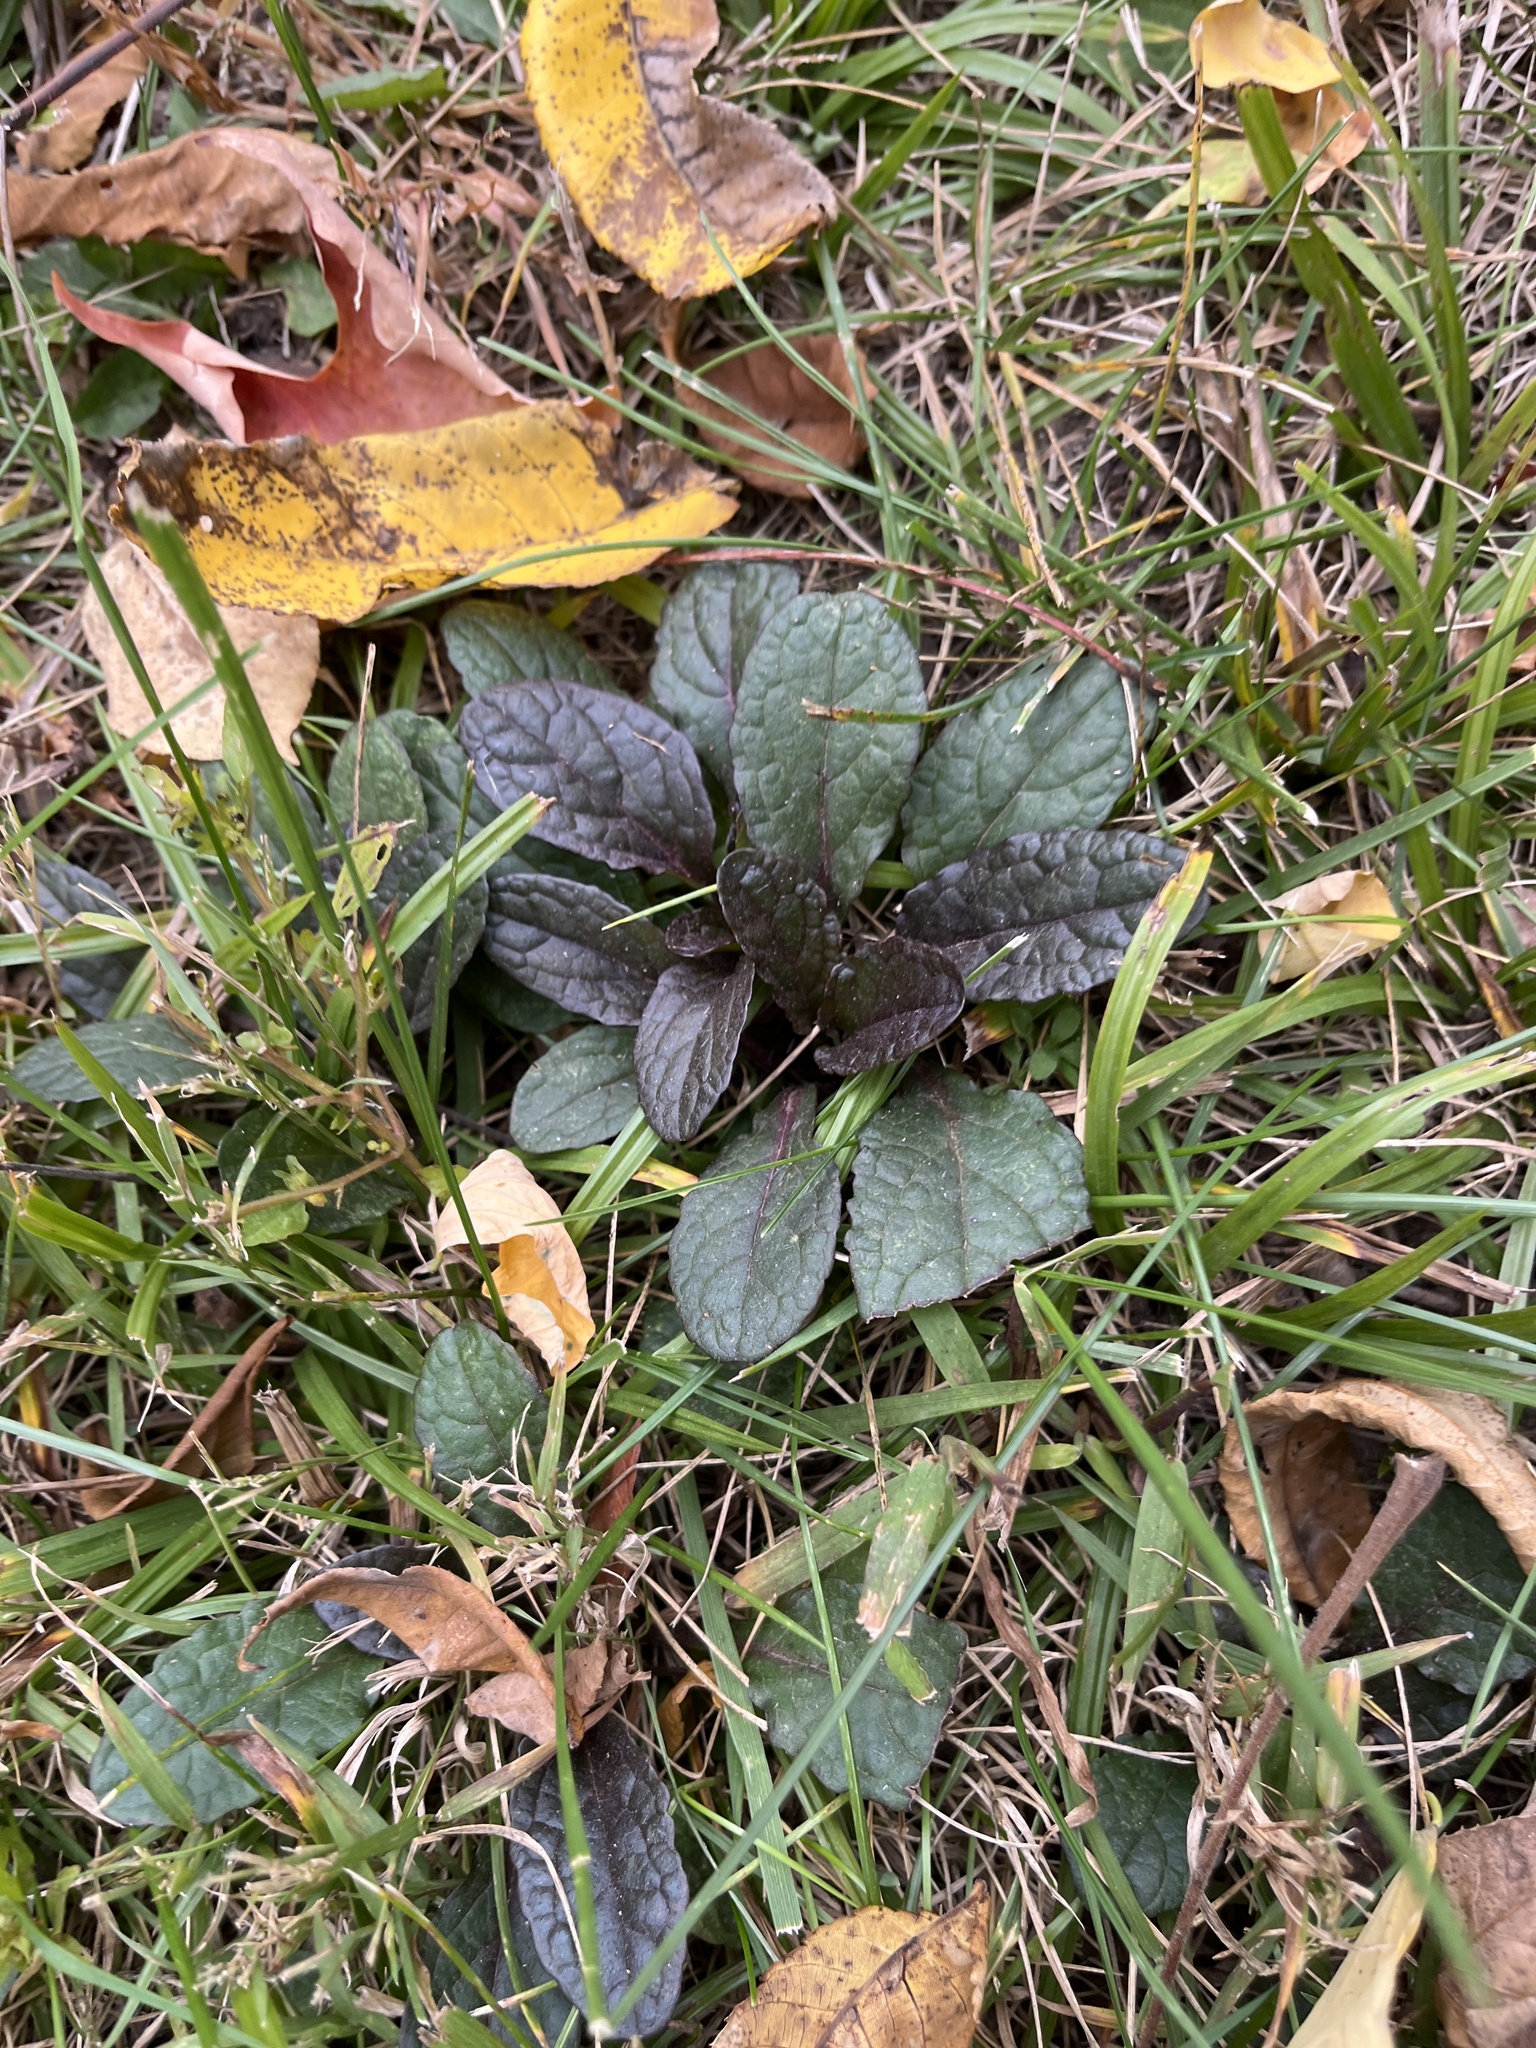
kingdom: Plantae
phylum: Tracheophyta
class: Magnoliopsida
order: Lamiales
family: Lamiaceae
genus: Ajuga
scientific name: Ajuga reptans
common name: Bugle
